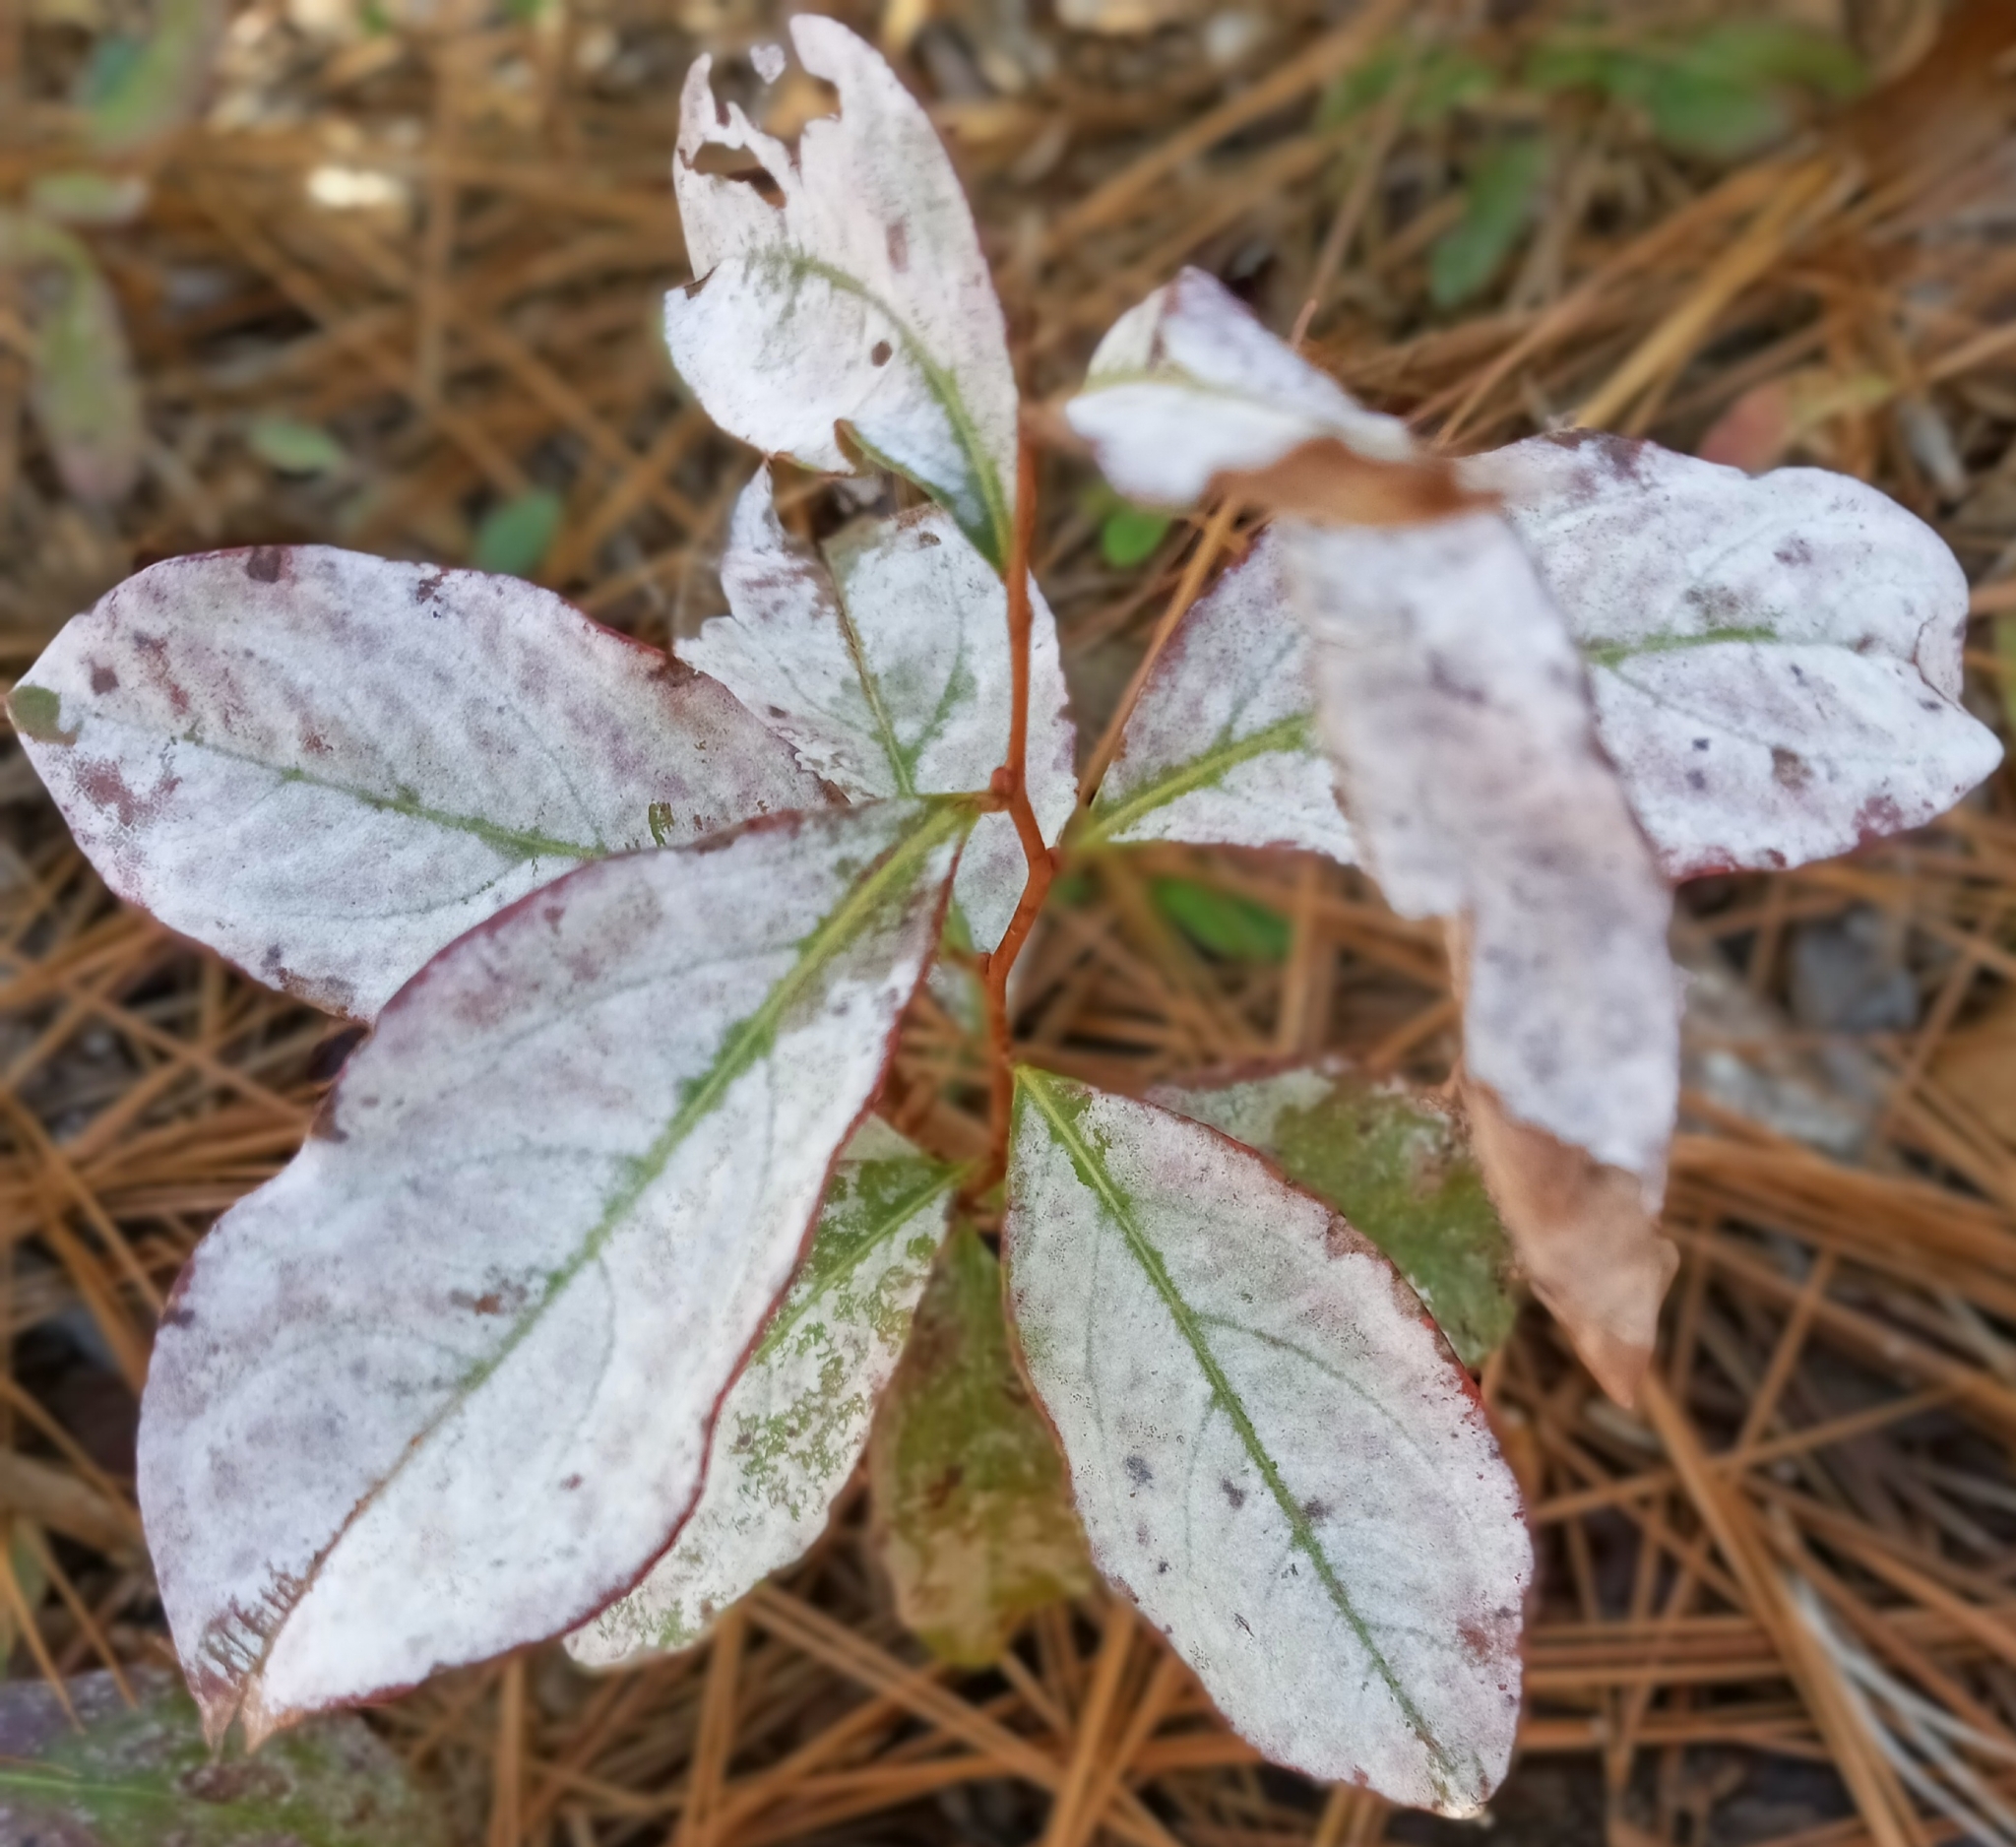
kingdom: Fungi
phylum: Ascomycota
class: Leotiomycetes
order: Helotiales
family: Erysiphaceae
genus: Erysiphe
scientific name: Erysiphe penicillata
